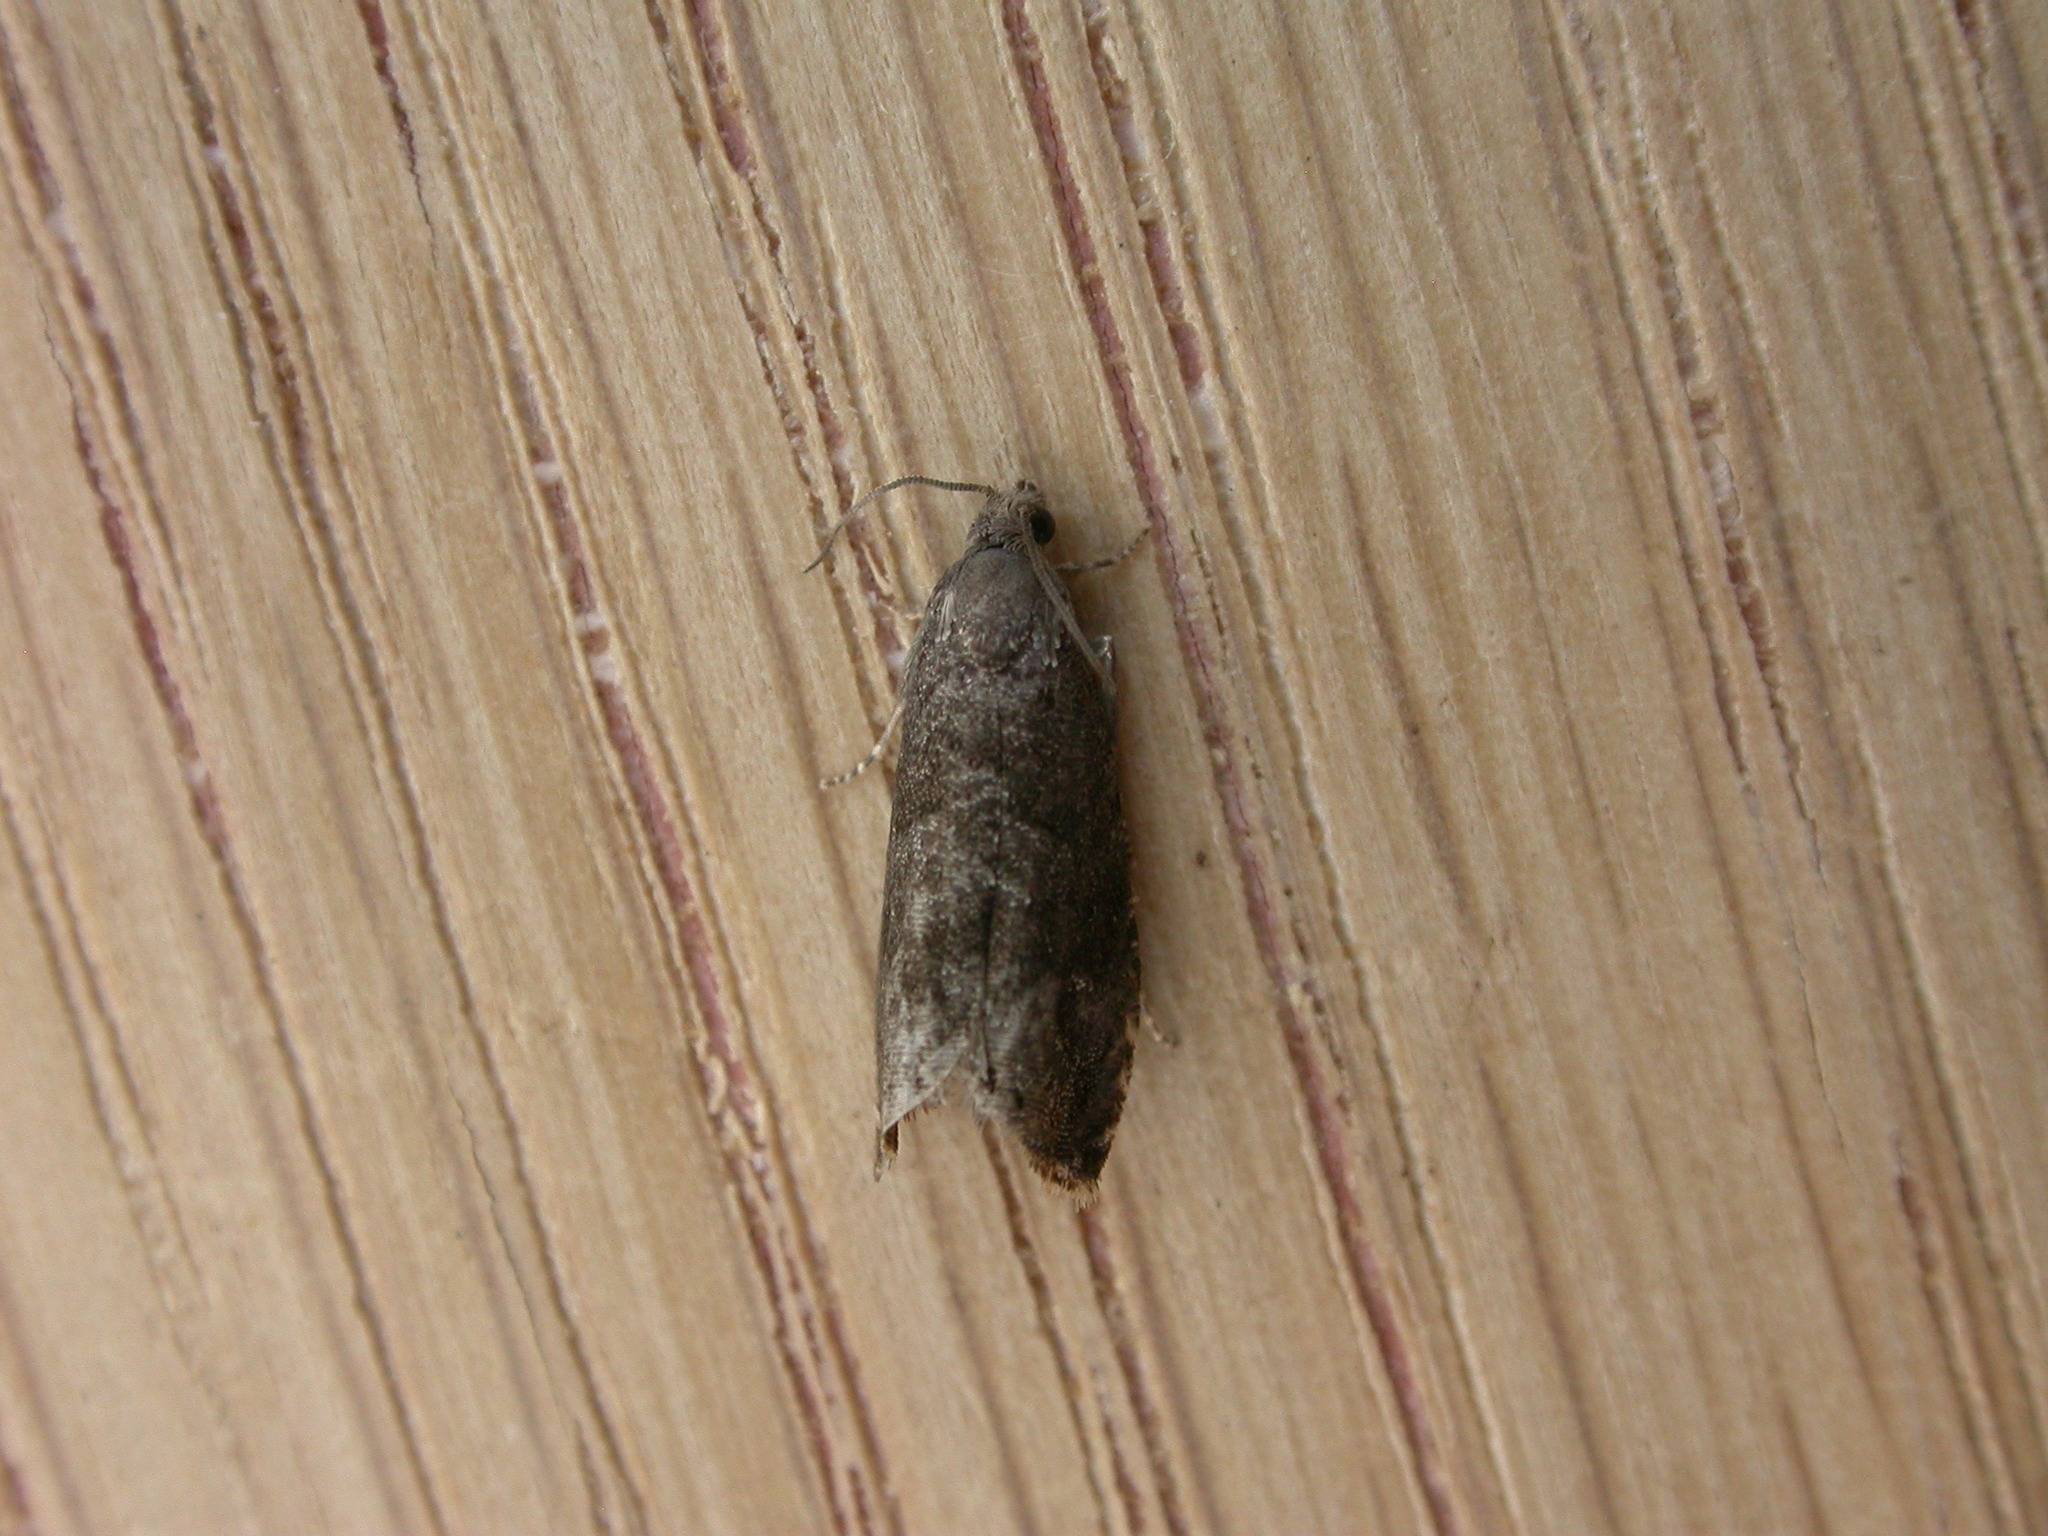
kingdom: Animalia
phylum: Arthropoda
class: Insecta
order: Lepidoptera
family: Noctuidae
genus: Aspila
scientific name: Aspila
